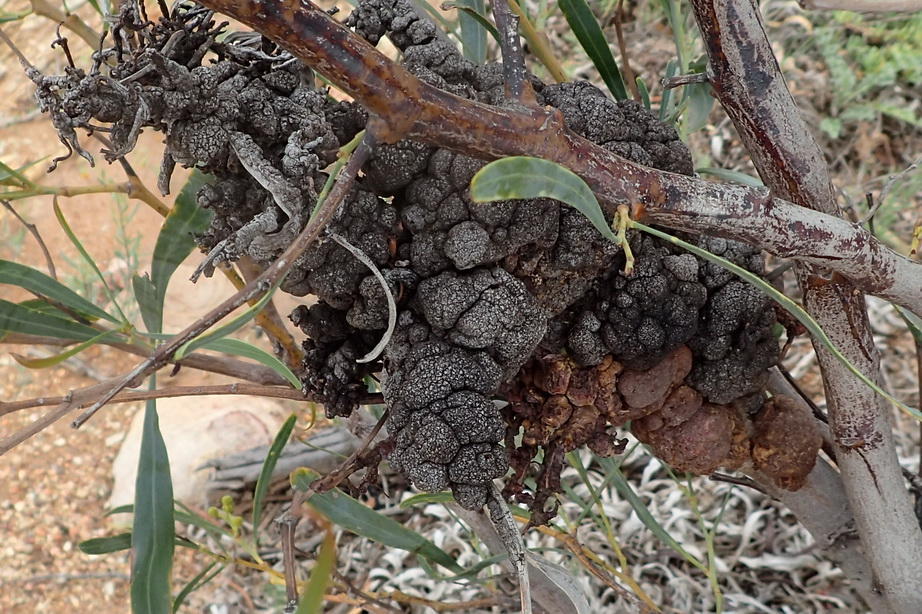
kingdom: Fungi
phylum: Basidiomycota
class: Pucciniomycetes
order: Pucciniales
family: Uromycladiaceae
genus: Uromycladium
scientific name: Uromycladium morrisii
